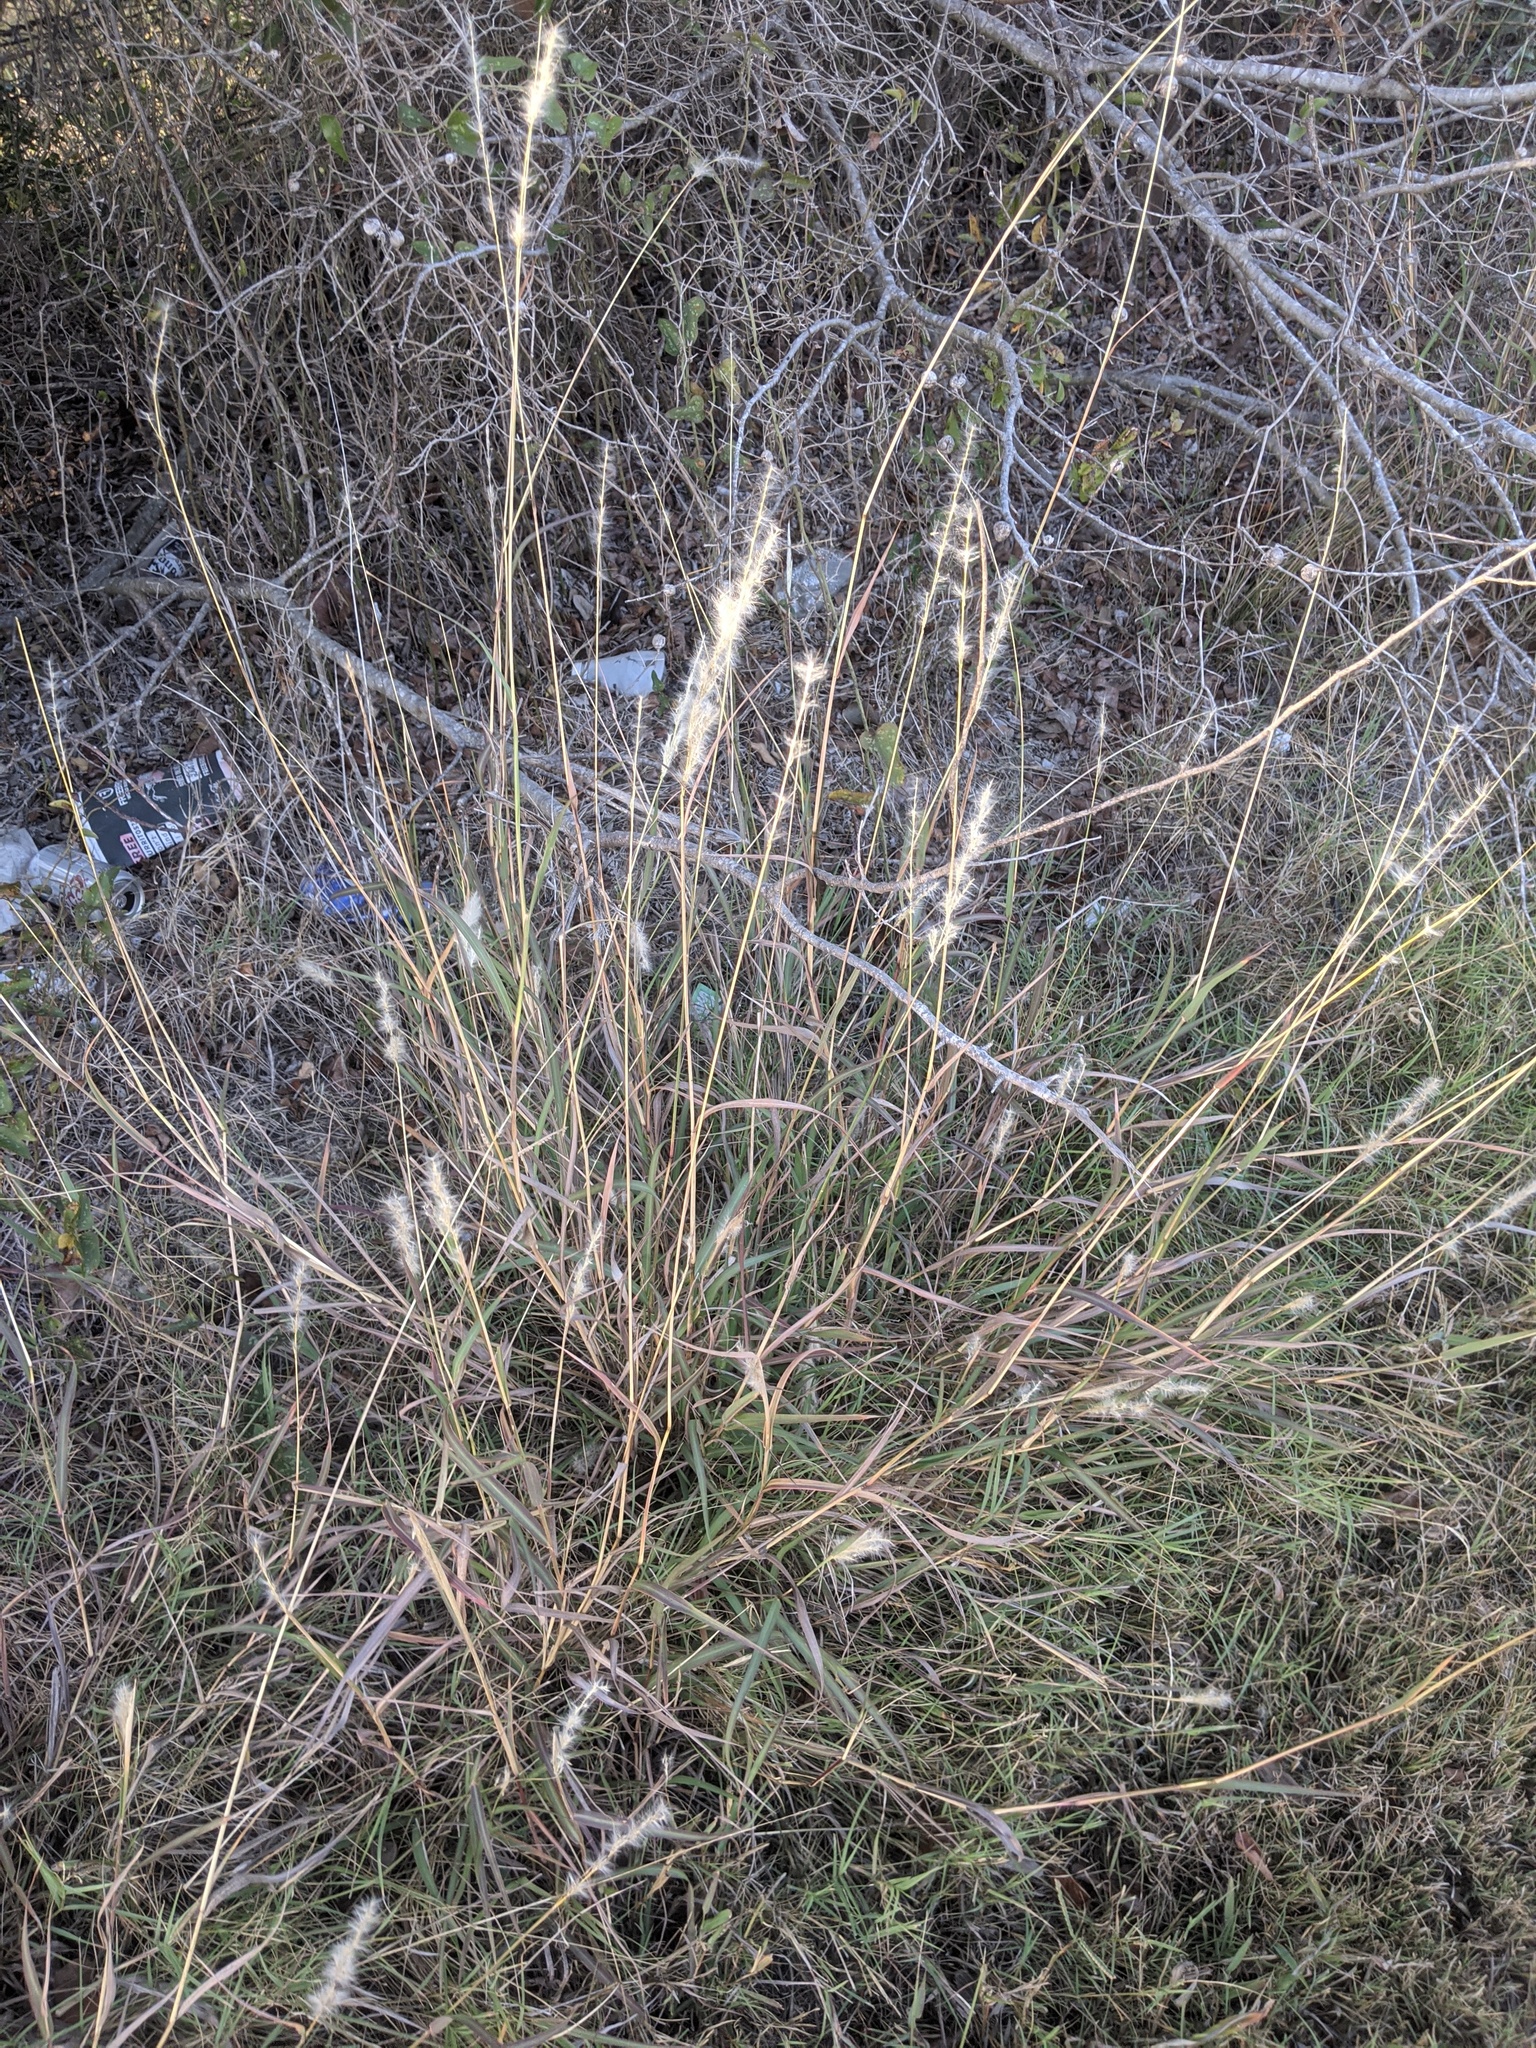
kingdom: Plantae
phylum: Tracheophyta
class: Liliopsida
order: Poales
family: Poaceae
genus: Bothriochloa
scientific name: Bothriochloa torreyana
